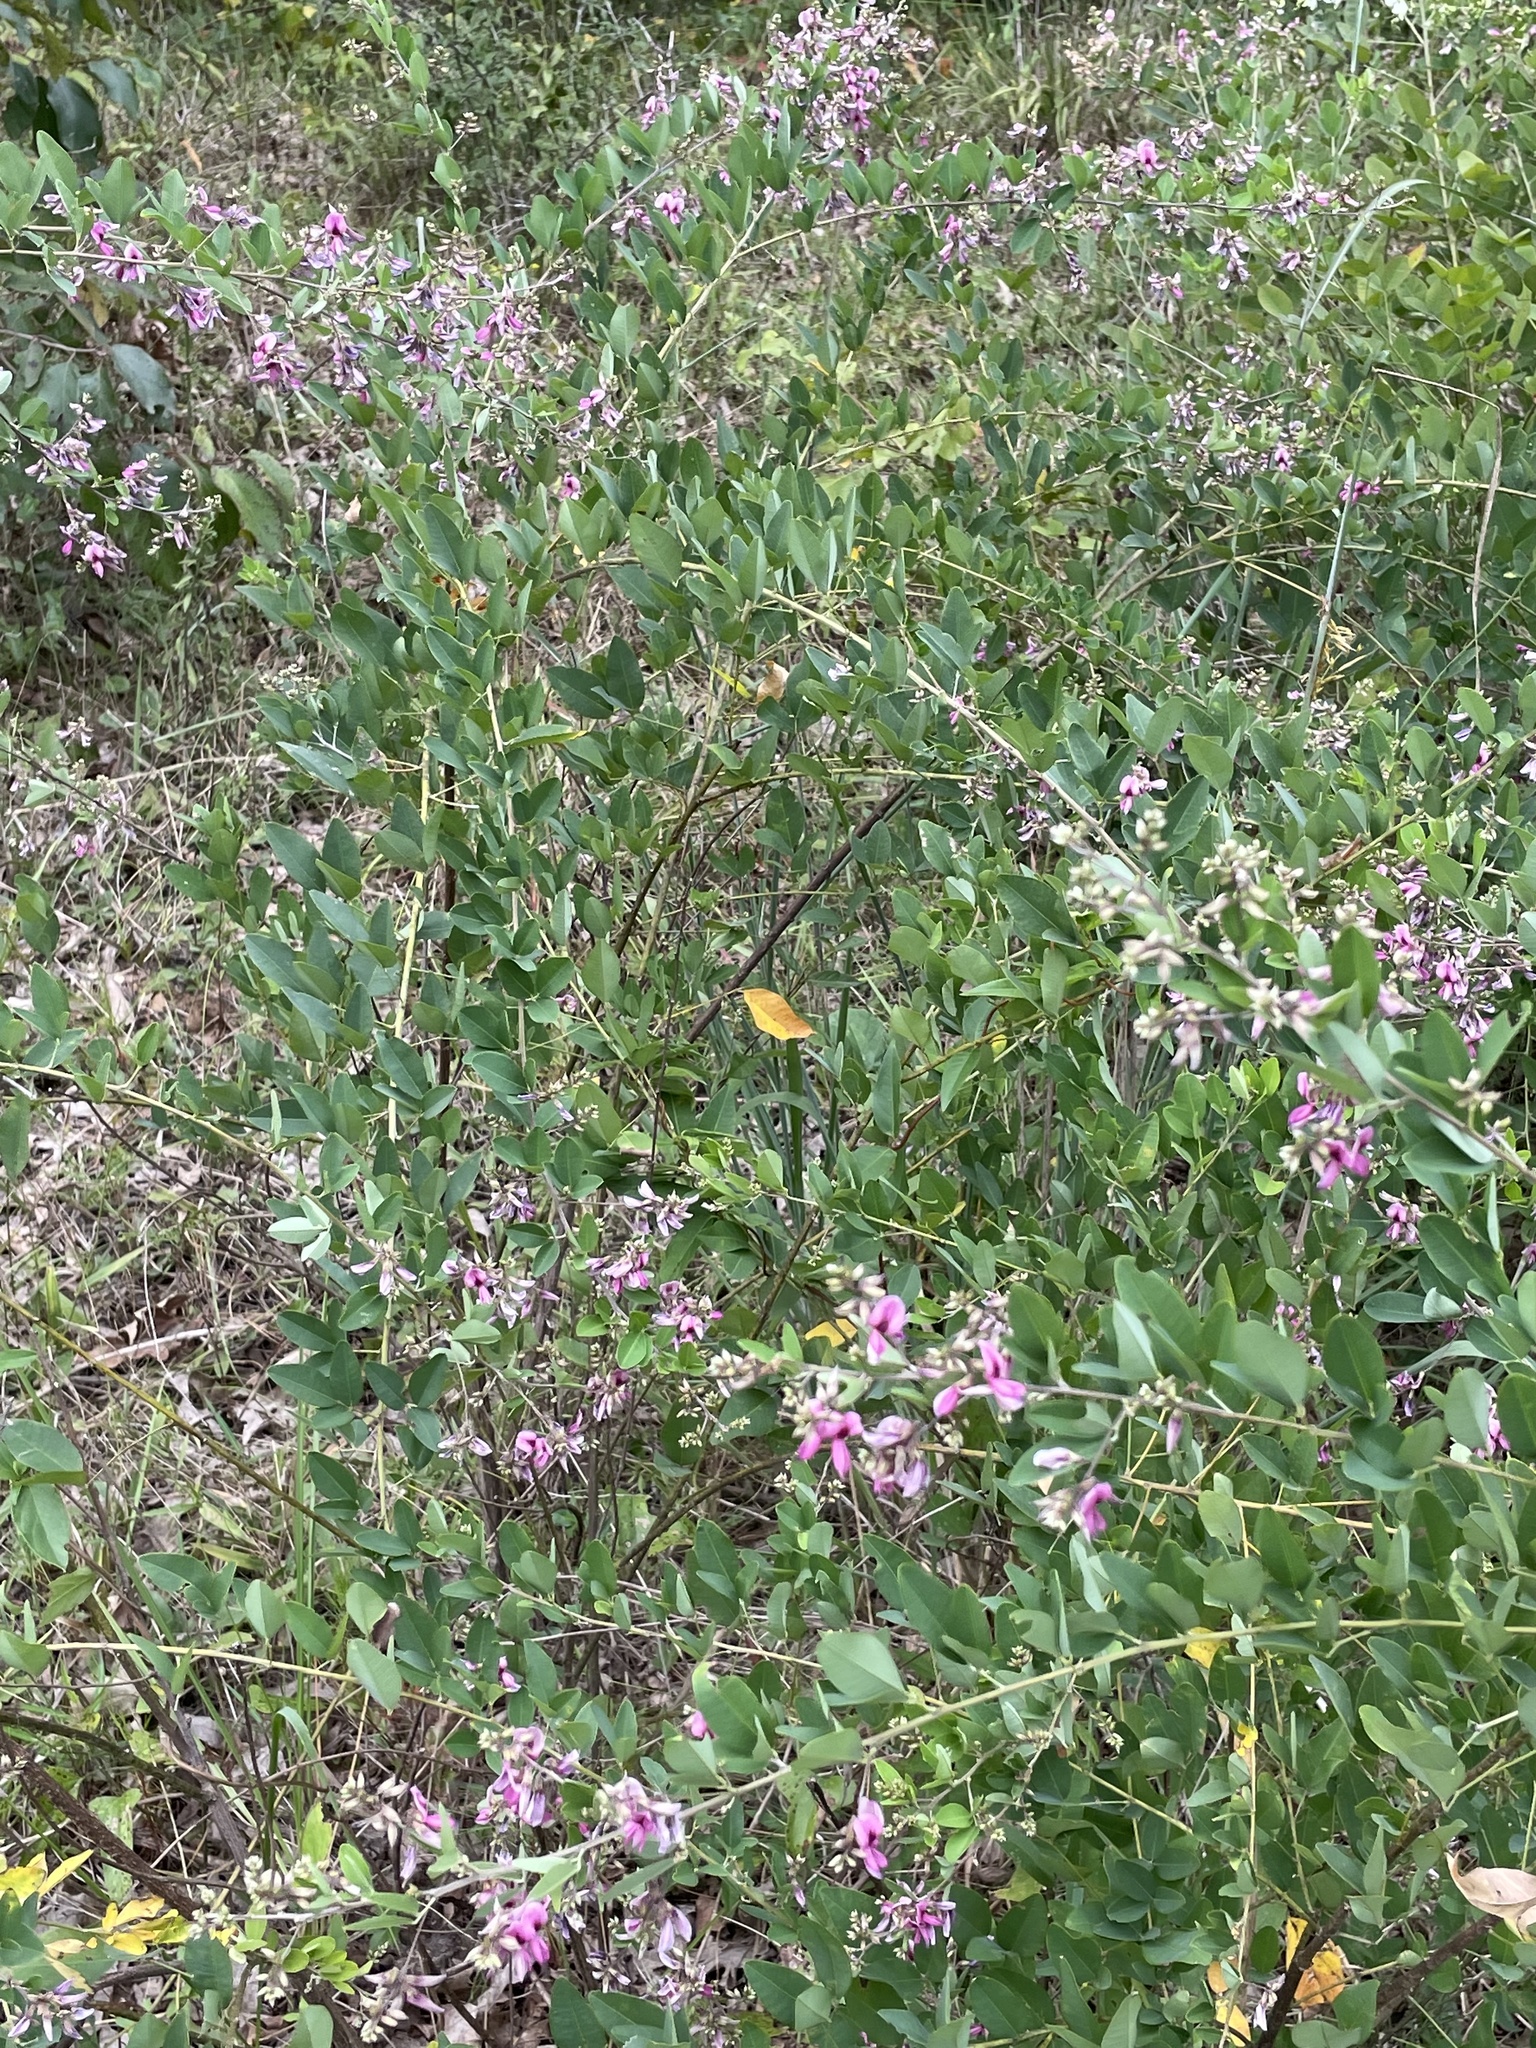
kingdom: Plantae
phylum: Tracheophyta
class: Magnoliopsida
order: Fabales
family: Fabaceae
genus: Lespedeza
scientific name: Lespedeza bicolor
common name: Shrub lespedeza
